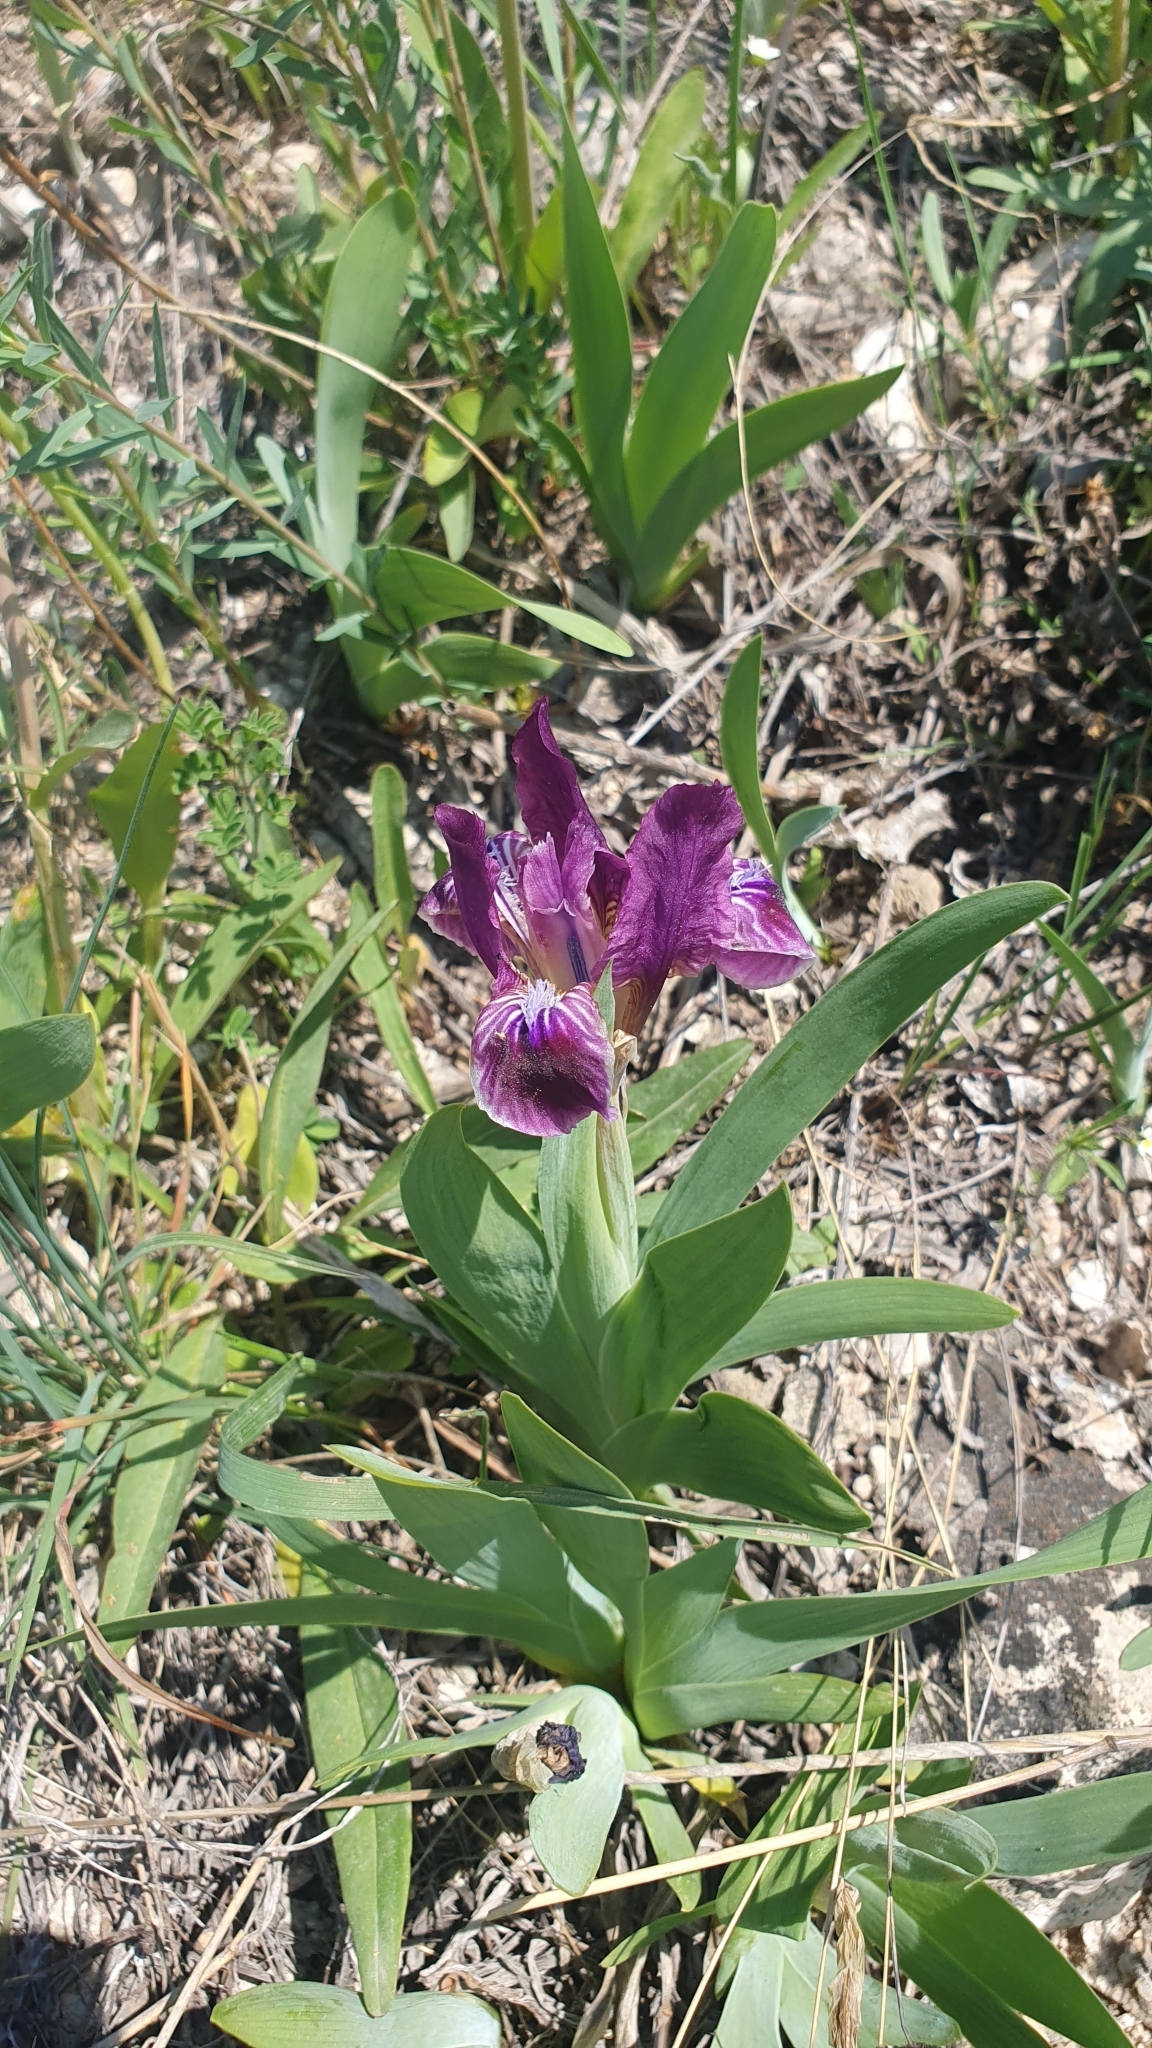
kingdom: Plantae
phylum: Tracheophyta
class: Liliopsida
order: Asparagales
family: Iridaceae
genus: Iris
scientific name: Iris pumila
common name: Dwarf iris
